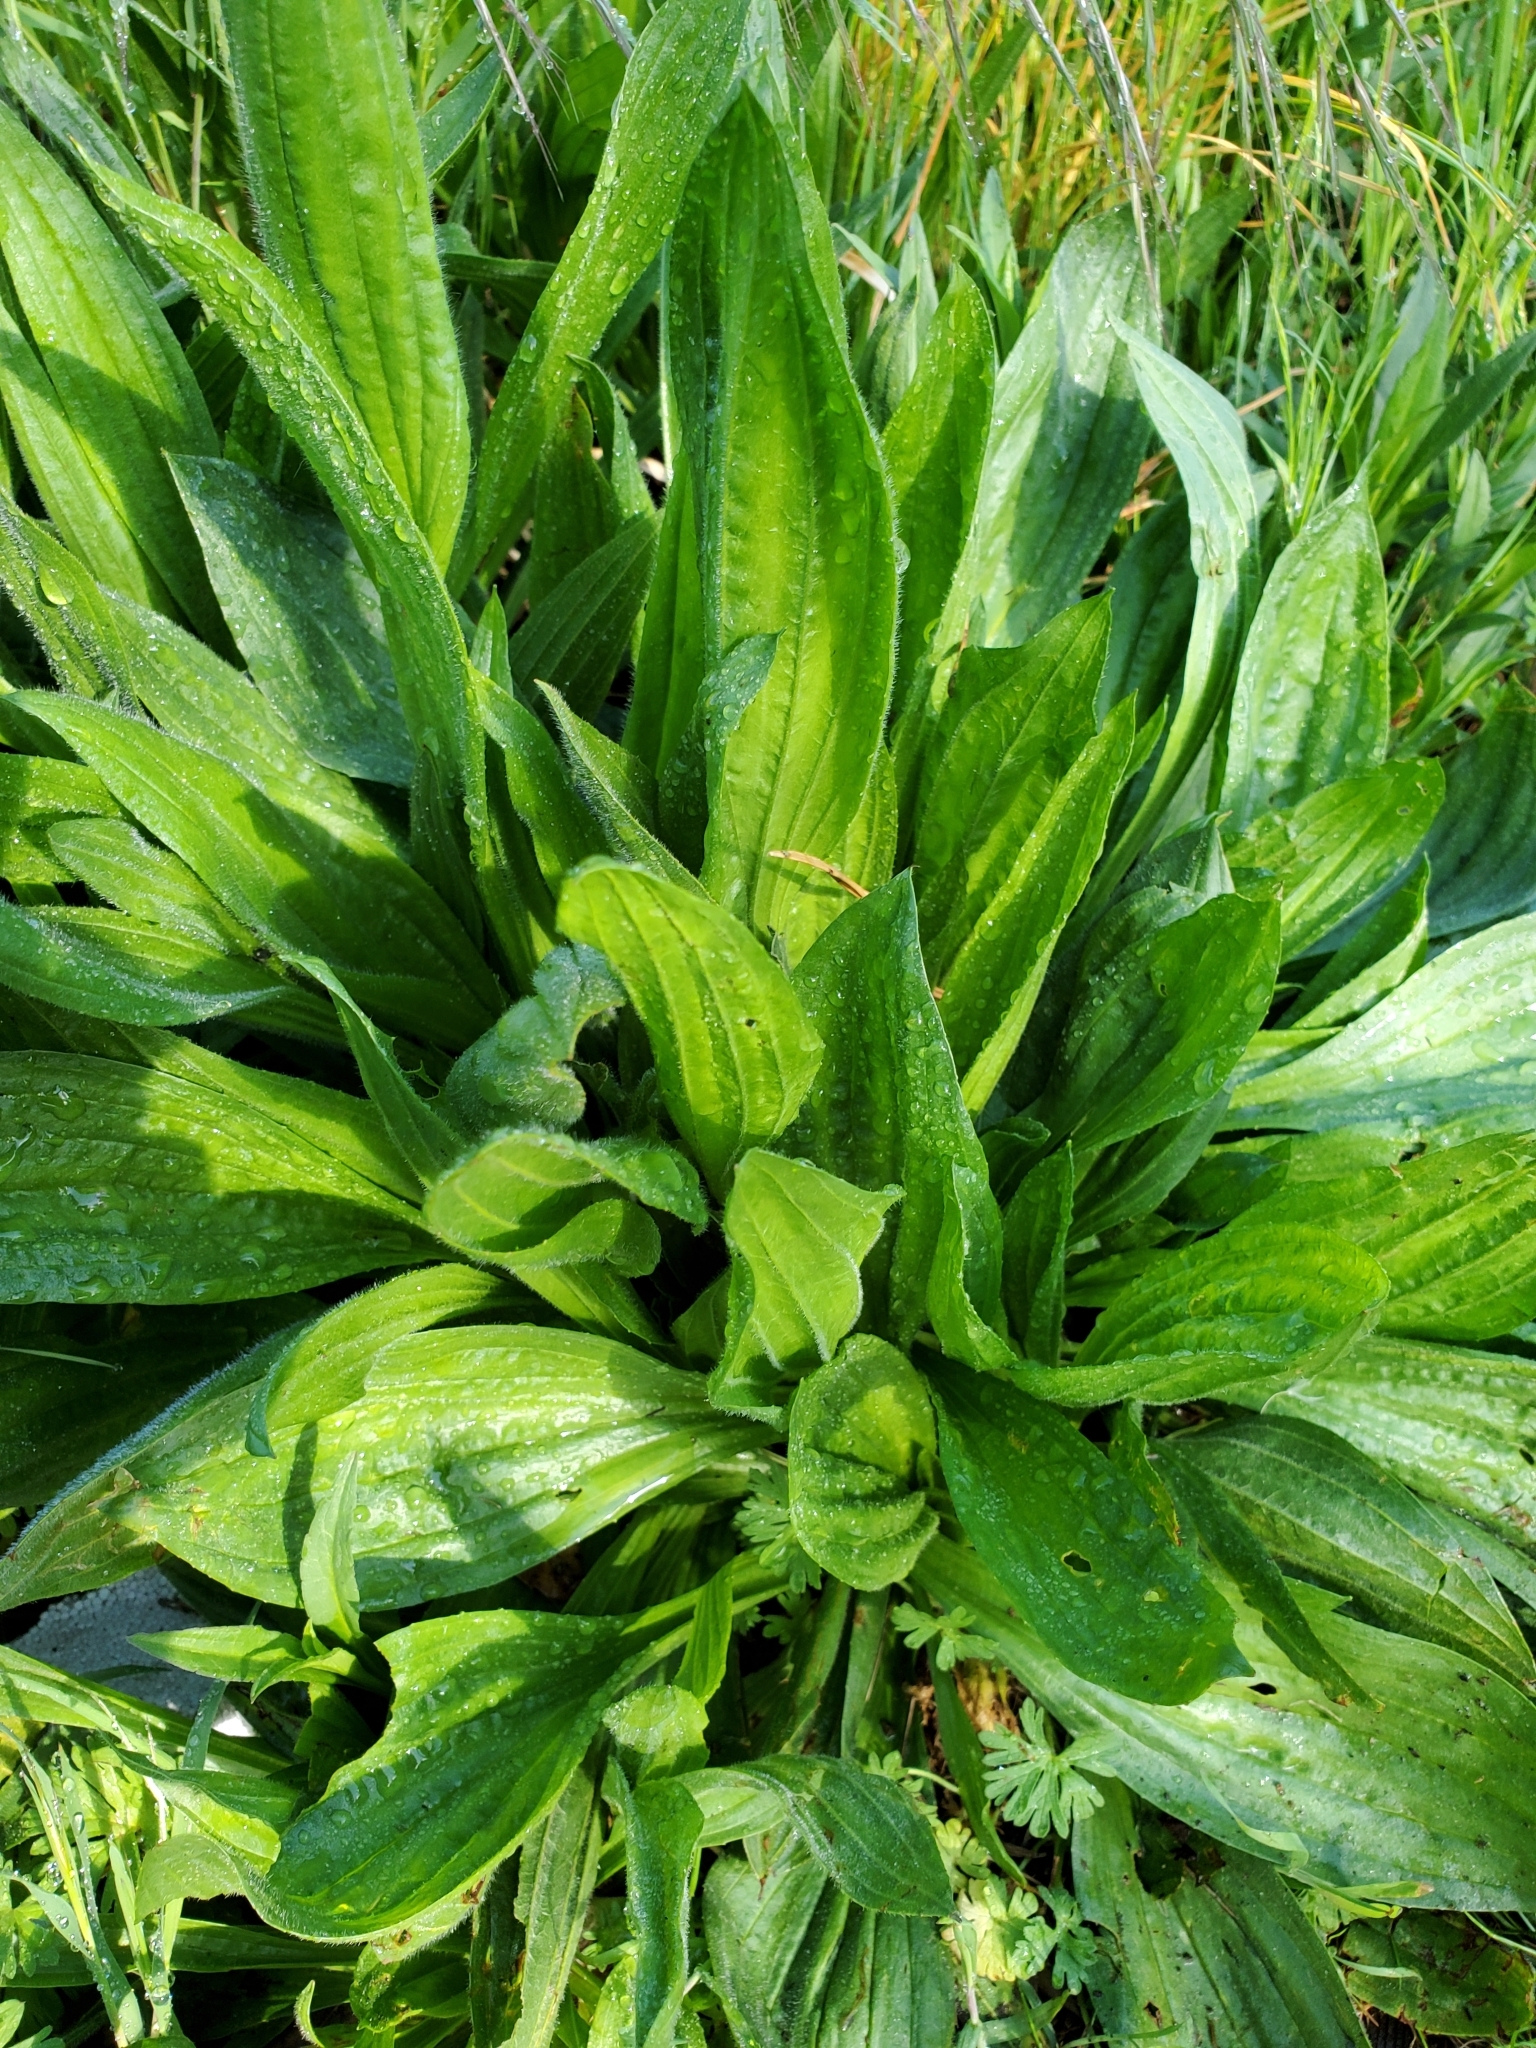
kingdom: Plantae
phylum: Tracheophyta
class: Magnoliopsida
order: Lamiales
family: Plantaginaceae
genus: Plantago
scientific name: Plantago lanceolata
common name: Ribwort plantain
